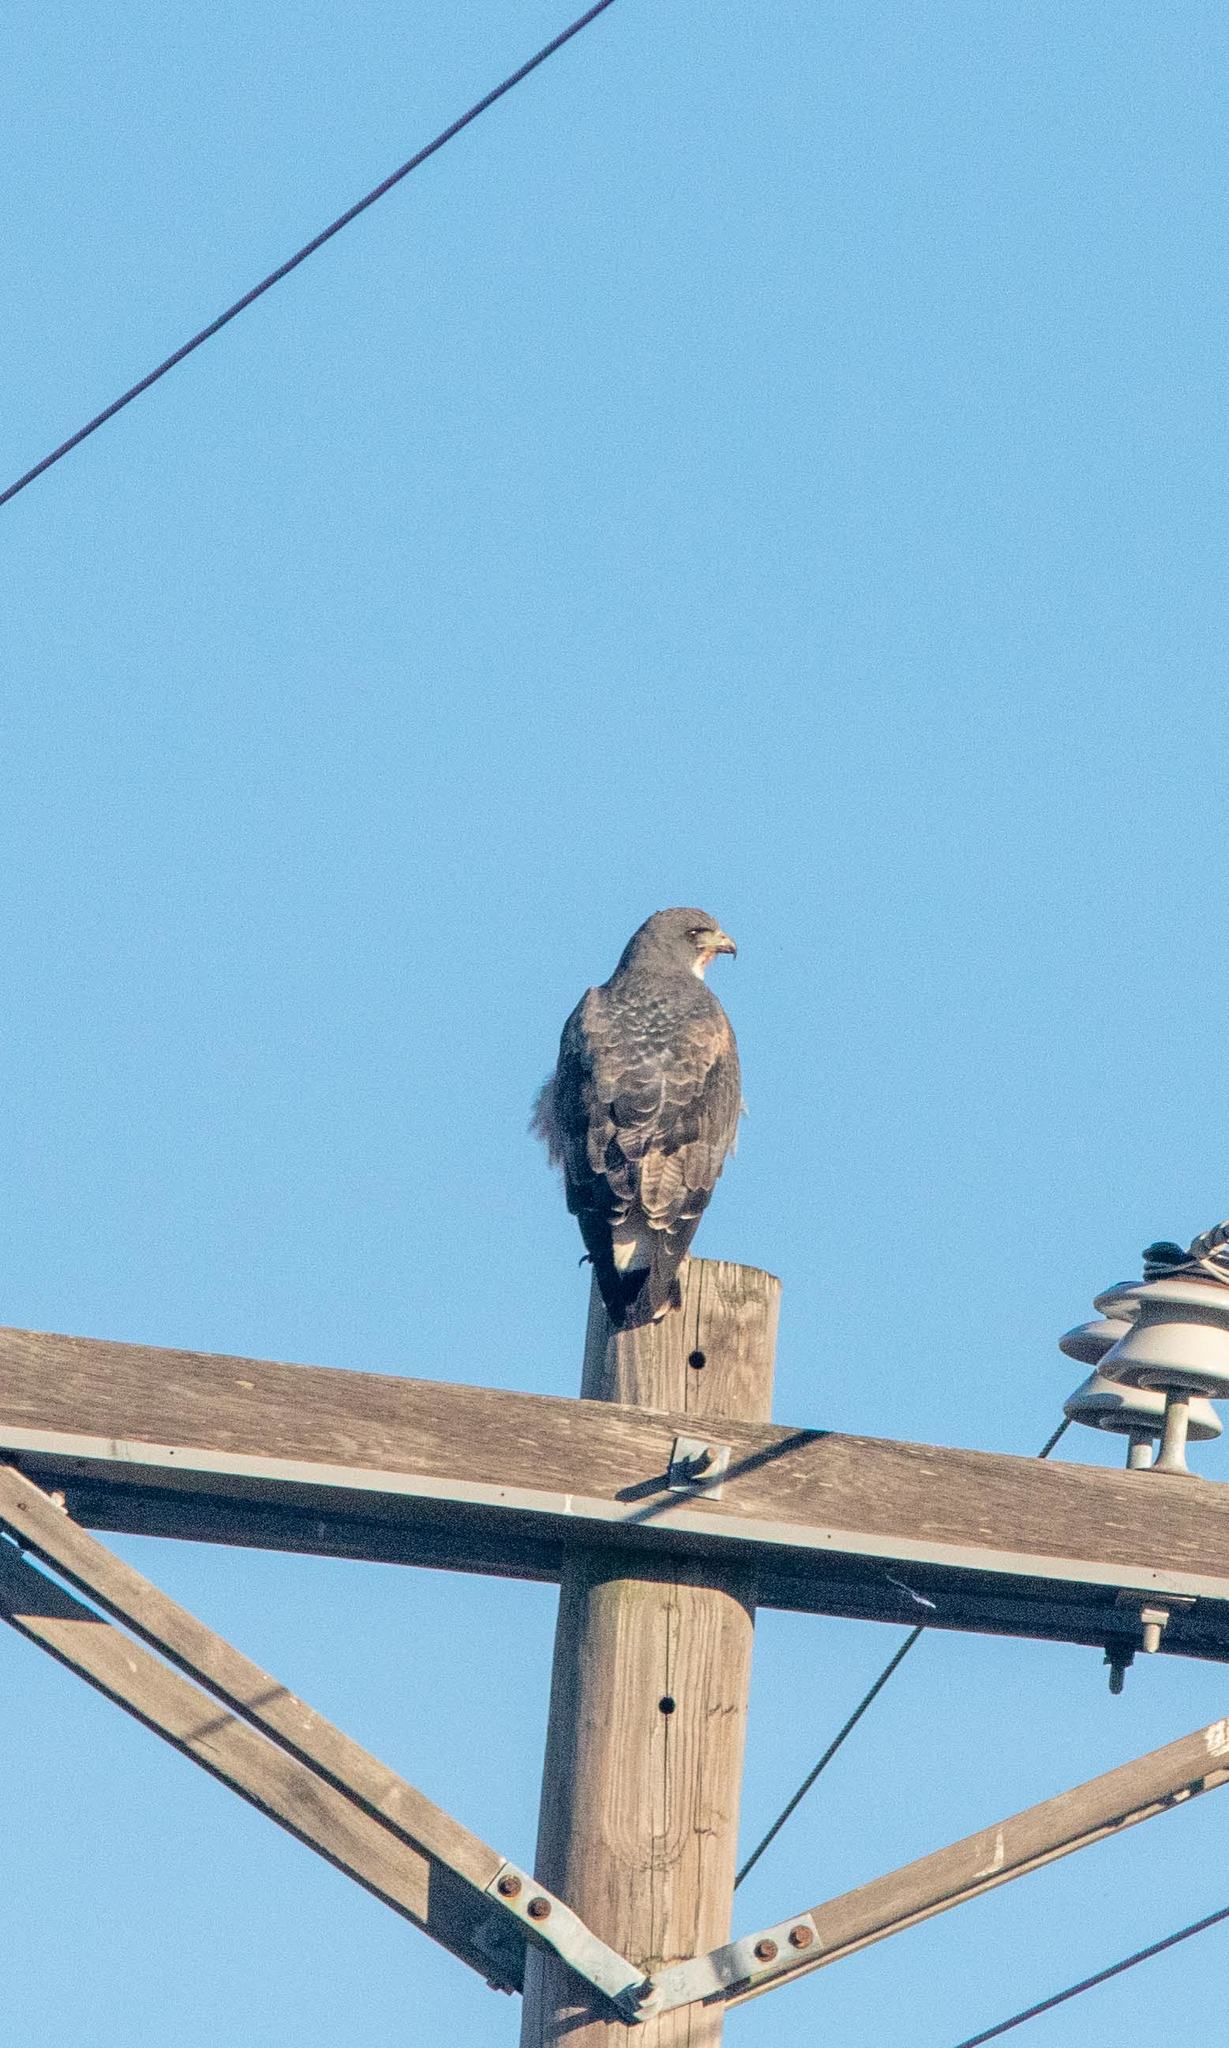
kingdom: Animalia
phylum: Chordata
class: Aves
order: Accipitriformes
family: Accipitridae
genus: Buteo
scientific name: Buteo albicaudatus
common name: White-tailed hawk
